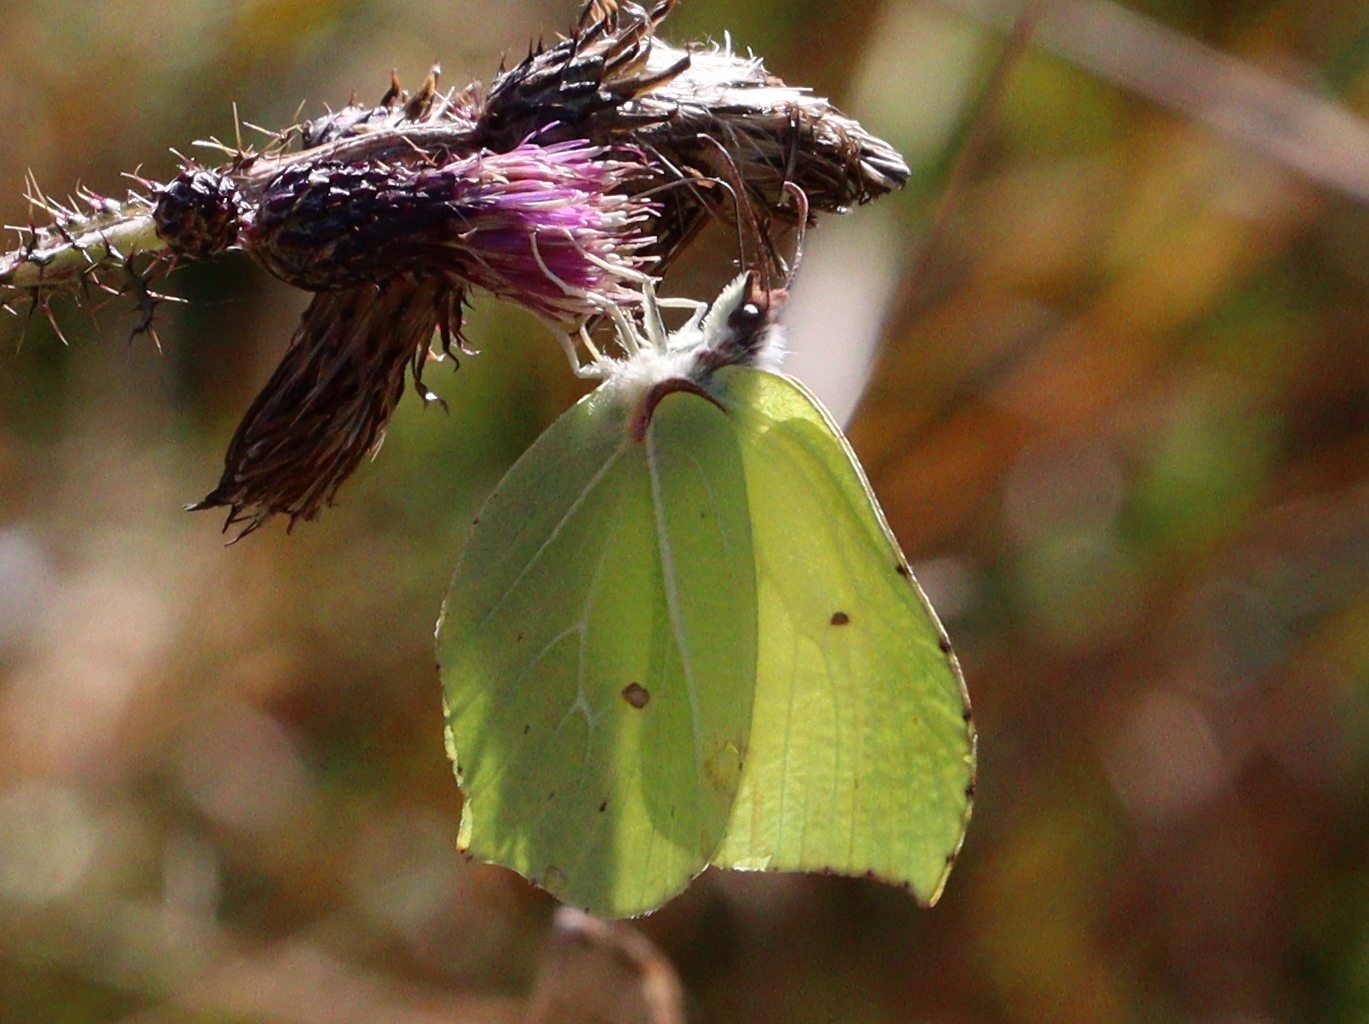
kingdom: Animalia
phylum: Arthropoda
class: Insecta
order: Lepidoptera
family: Pieridae
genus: Gonepteryx
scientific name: Gonepteryx rhamni
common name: Brimstone
